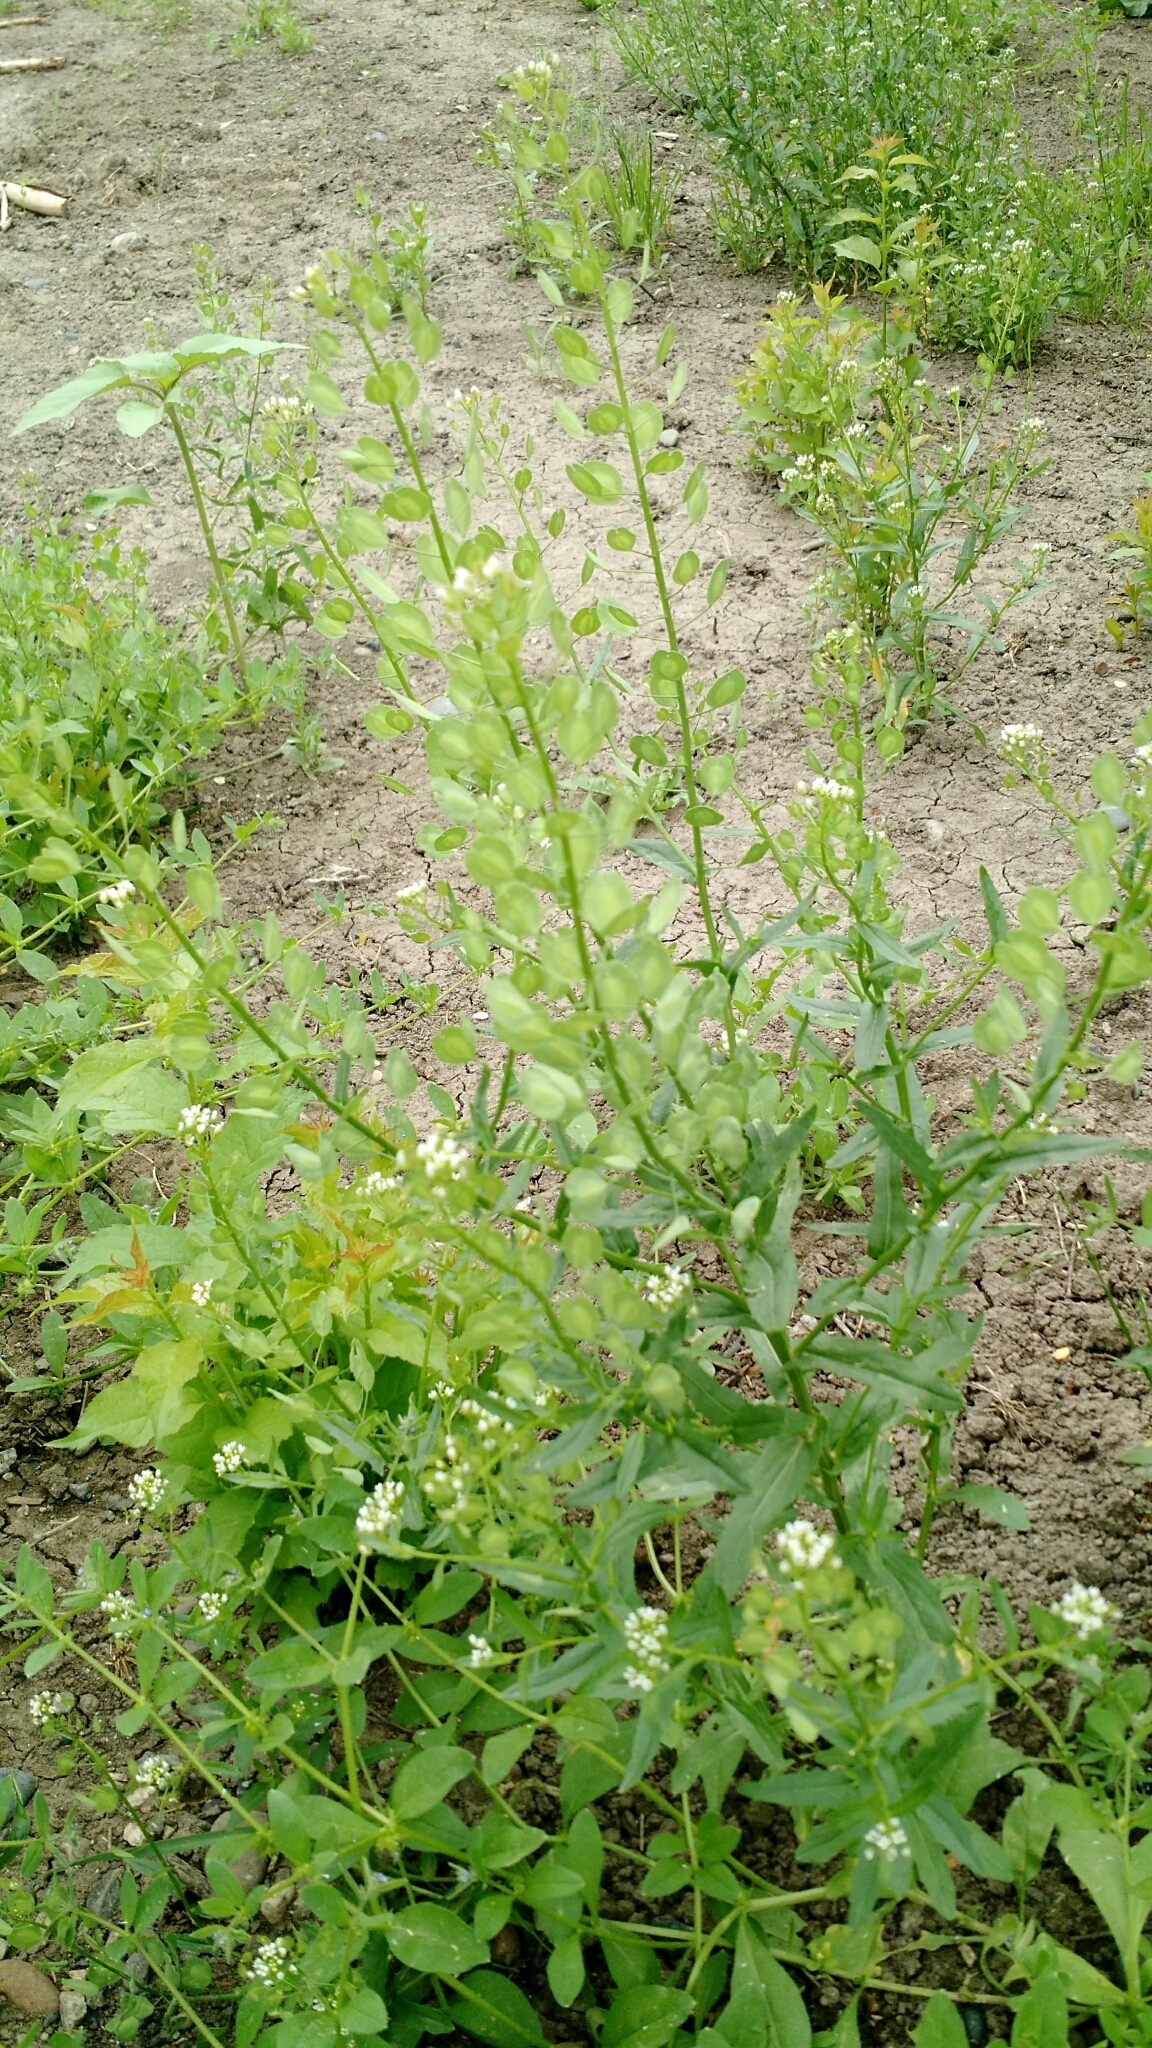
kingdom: Plantae
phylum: Tracheophyta
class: Magnoliopsida
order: Brassicales
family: Brassicaceae
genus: Thlaspi
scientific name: Thlaspi arvense
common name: Field pennycress
